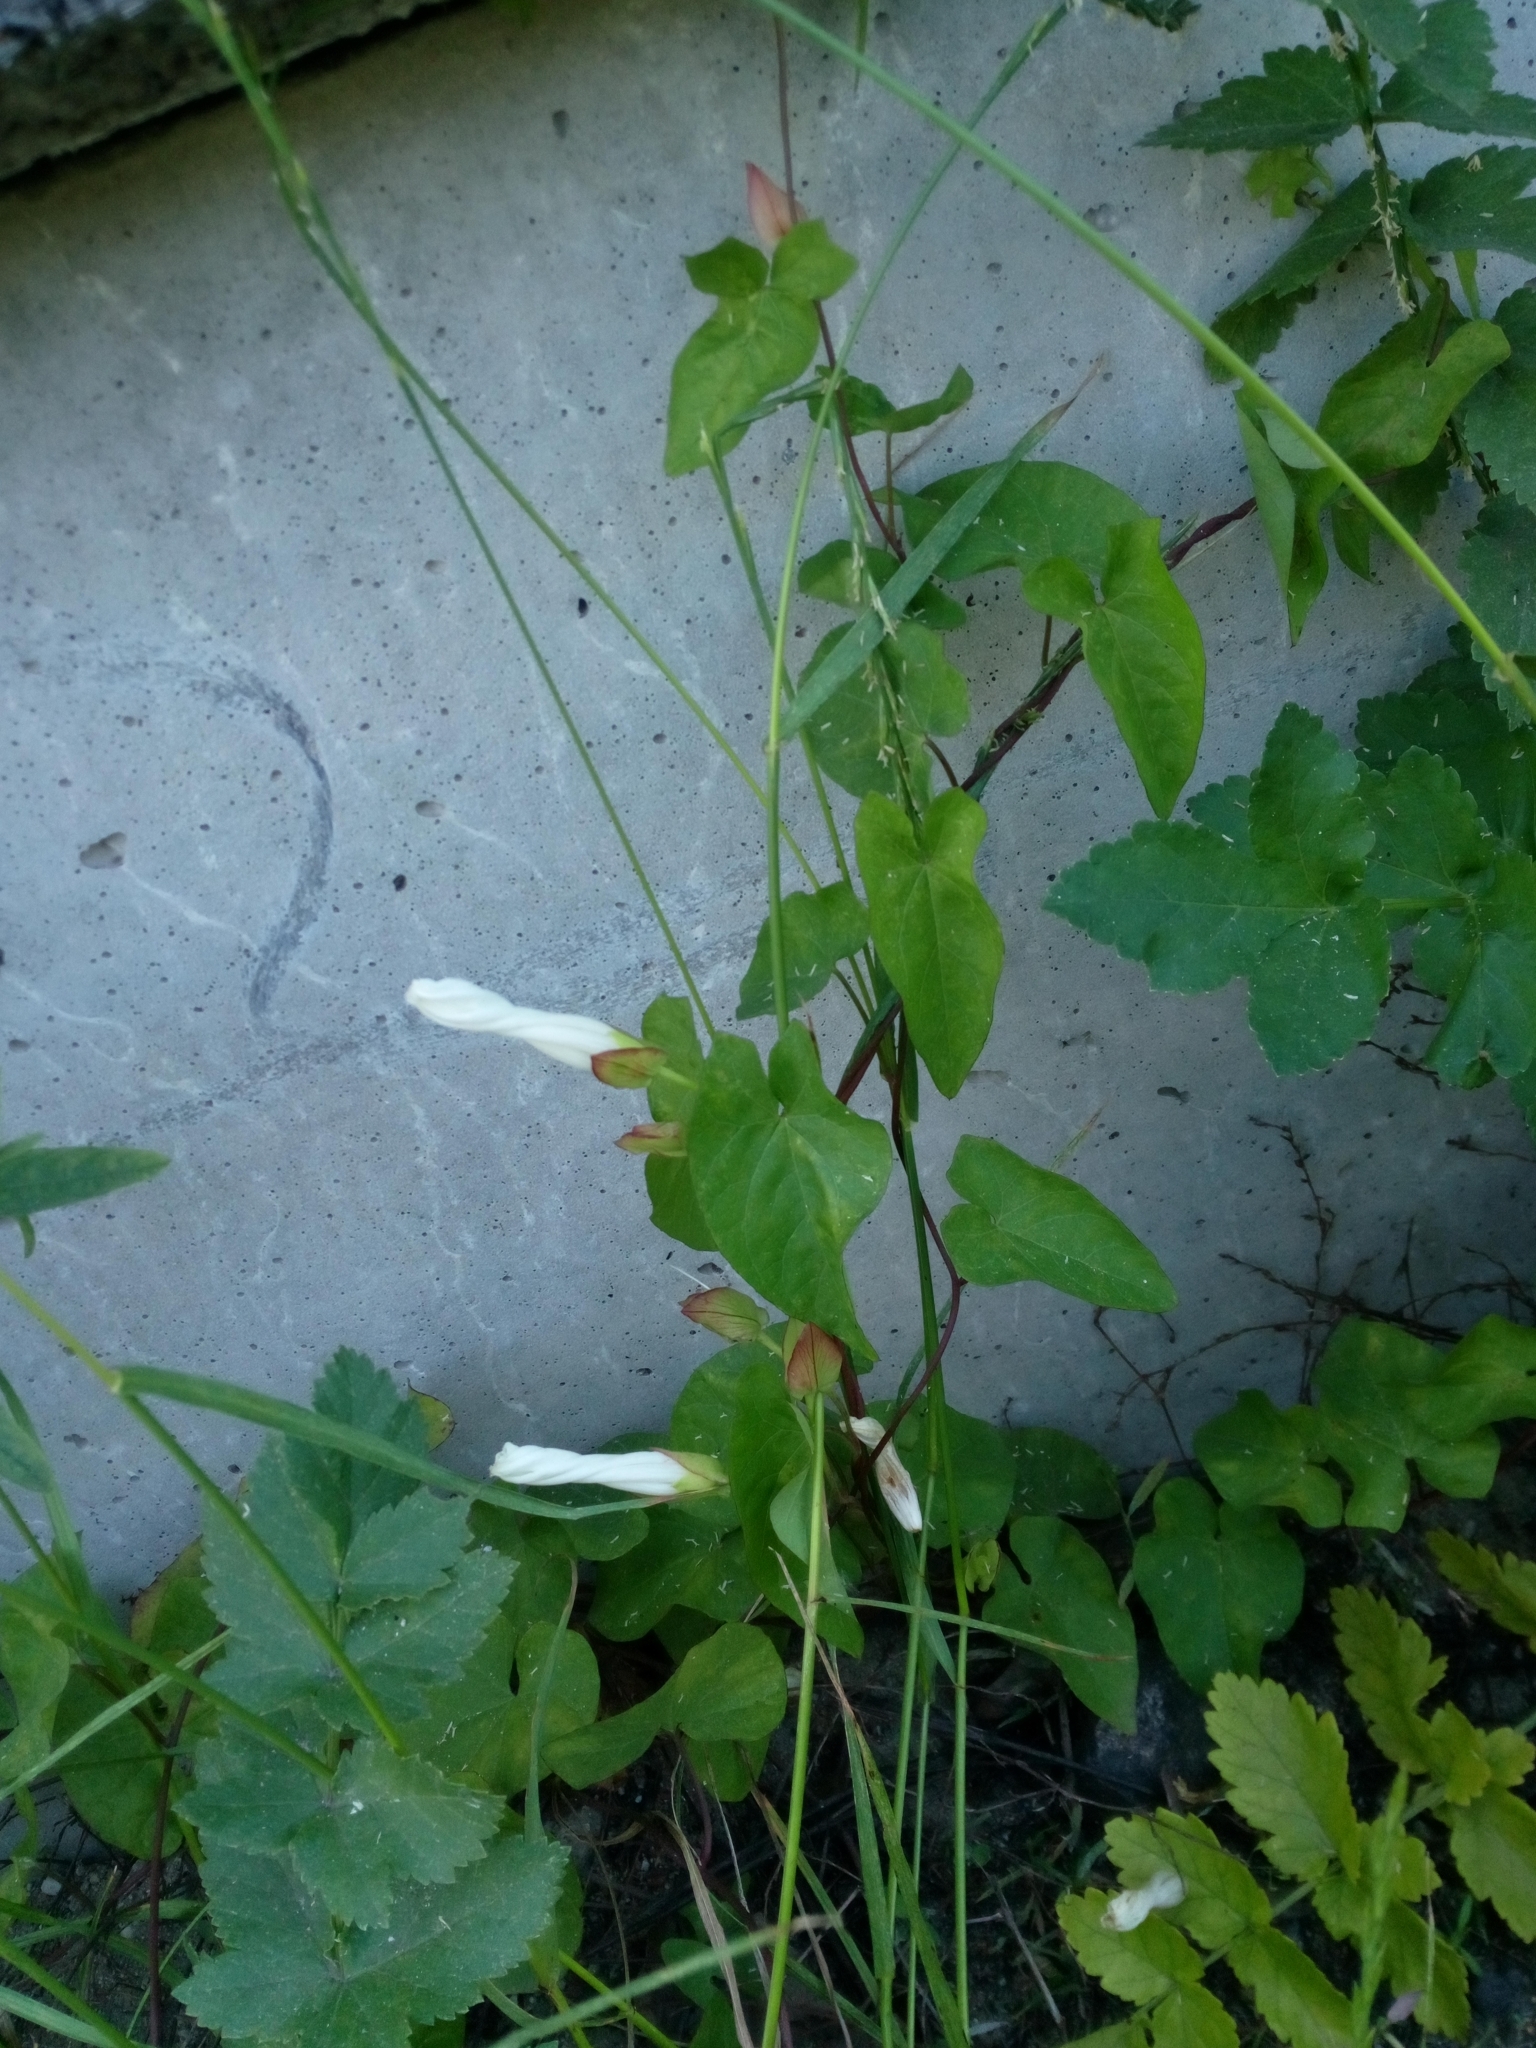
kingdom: Plantae
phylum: Tracheophyta
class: Magnoliopsida
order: Solanales
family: Convolvulaceae
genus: Calystegia
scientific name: Calystegia sepium
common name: Hedge bindweed
